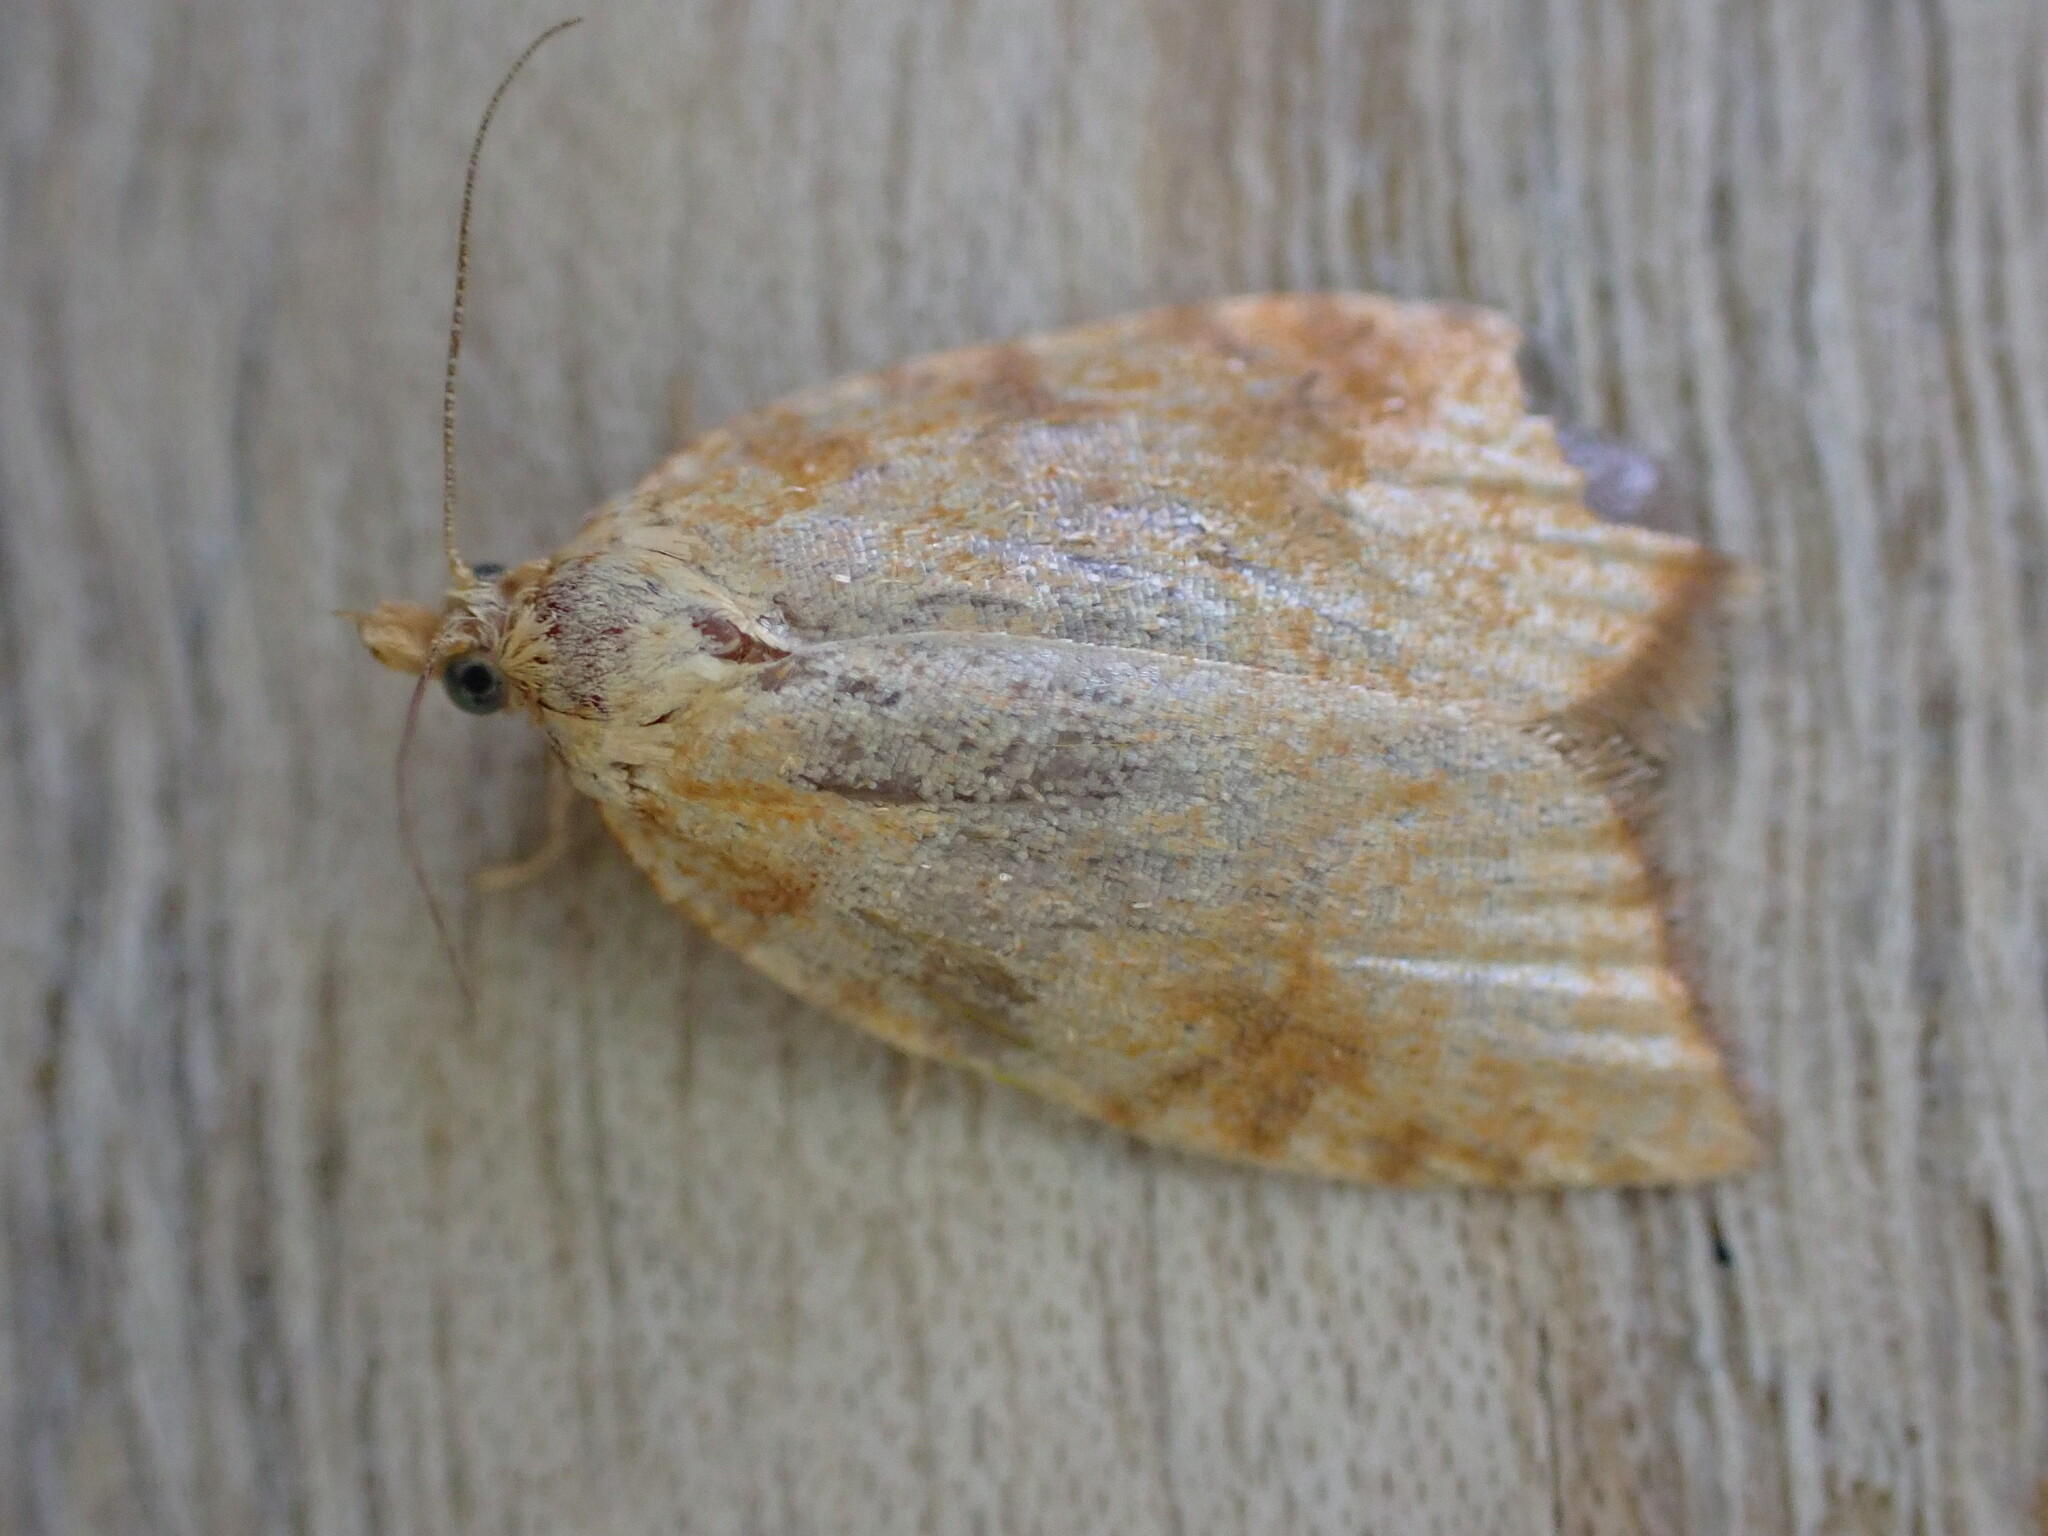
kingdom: Animalia
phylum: Arthropoda
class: Insecta
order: Lepidoptera
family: Tortricidae
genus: Aleimma
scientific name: Aleimma loeflingiana
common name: Yellow oak button
